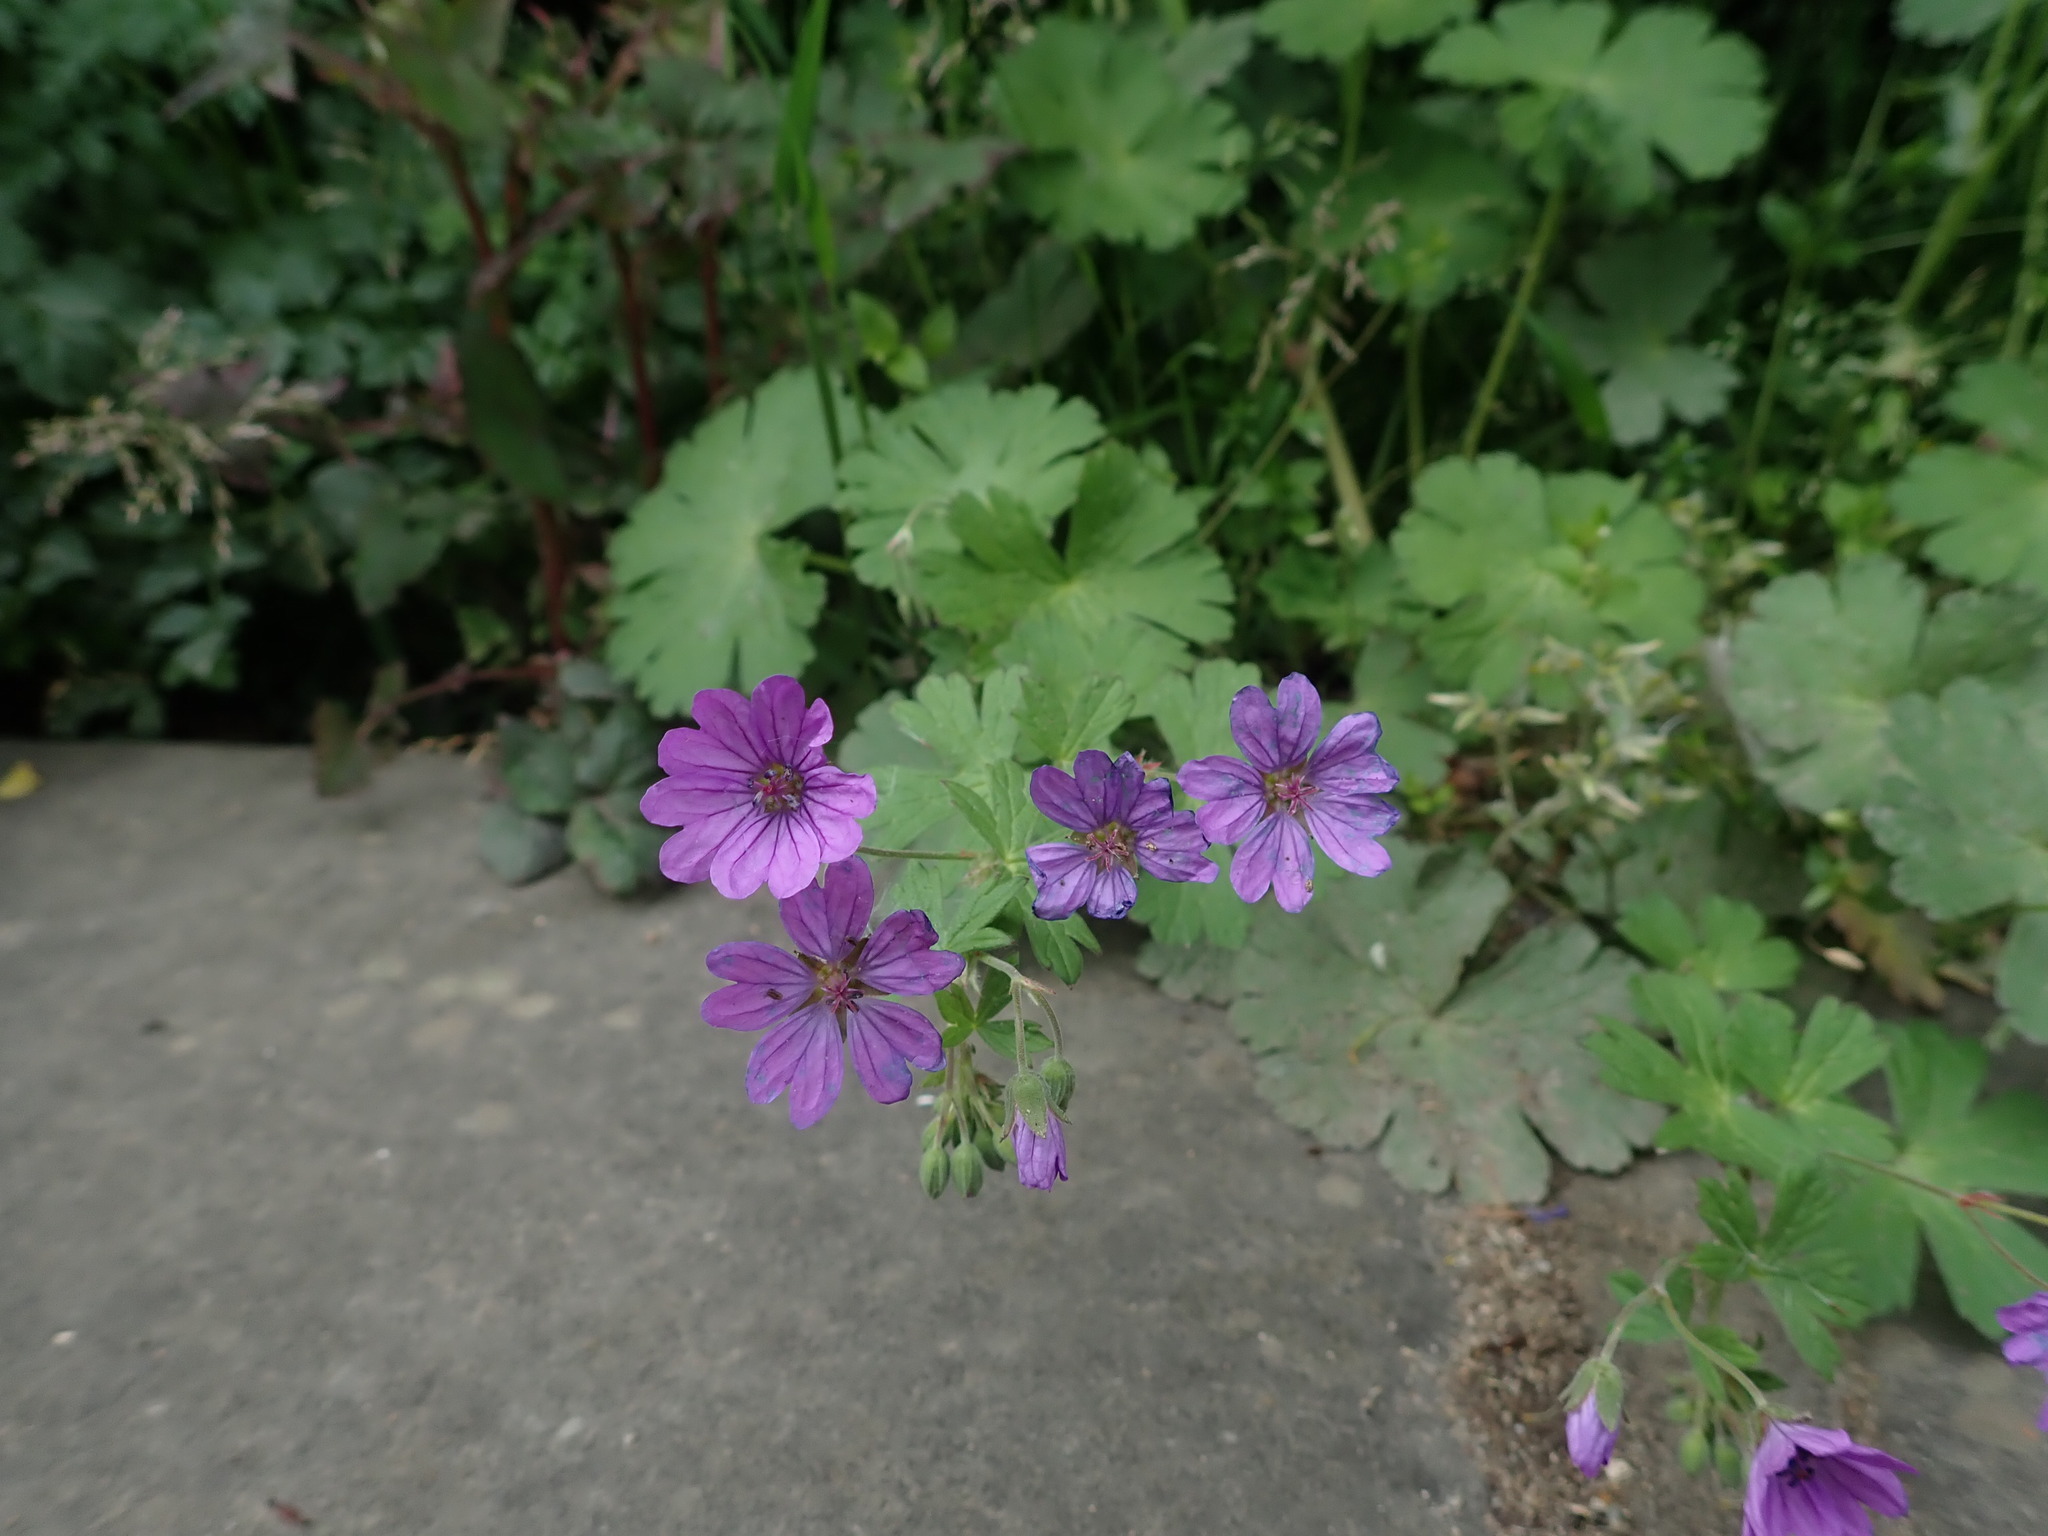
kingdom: Plantae
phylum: Tracheophyta
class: Magnoliopsida
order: Geraniales
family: Geraniaceae
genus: Geranium
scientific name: Geranium pyrenaicum
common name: Hedgerow crane's-bill
